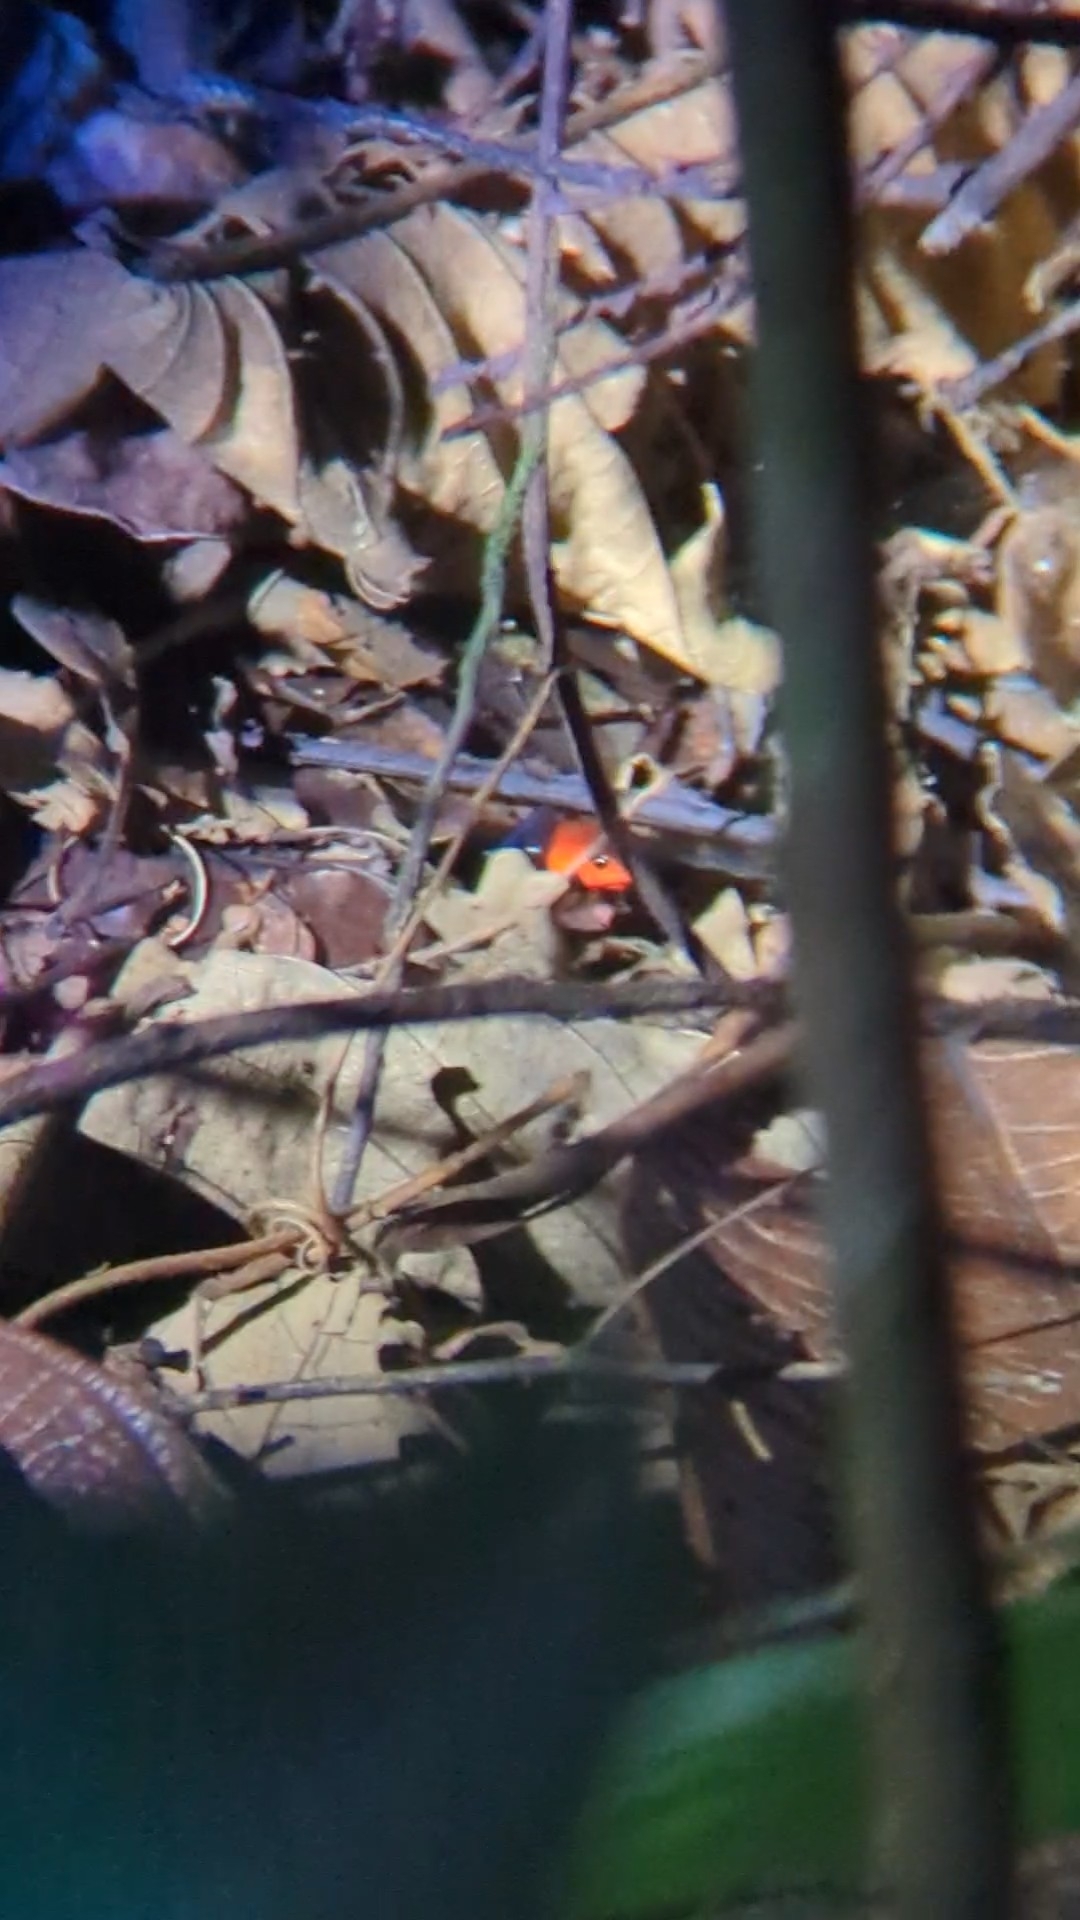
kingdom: Animalia
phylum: Chordata
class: Amphibia
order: Anura
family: Dendrobatidae
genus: Oophaga
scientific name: Oophaga pumilio
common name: Flaming poison frog
